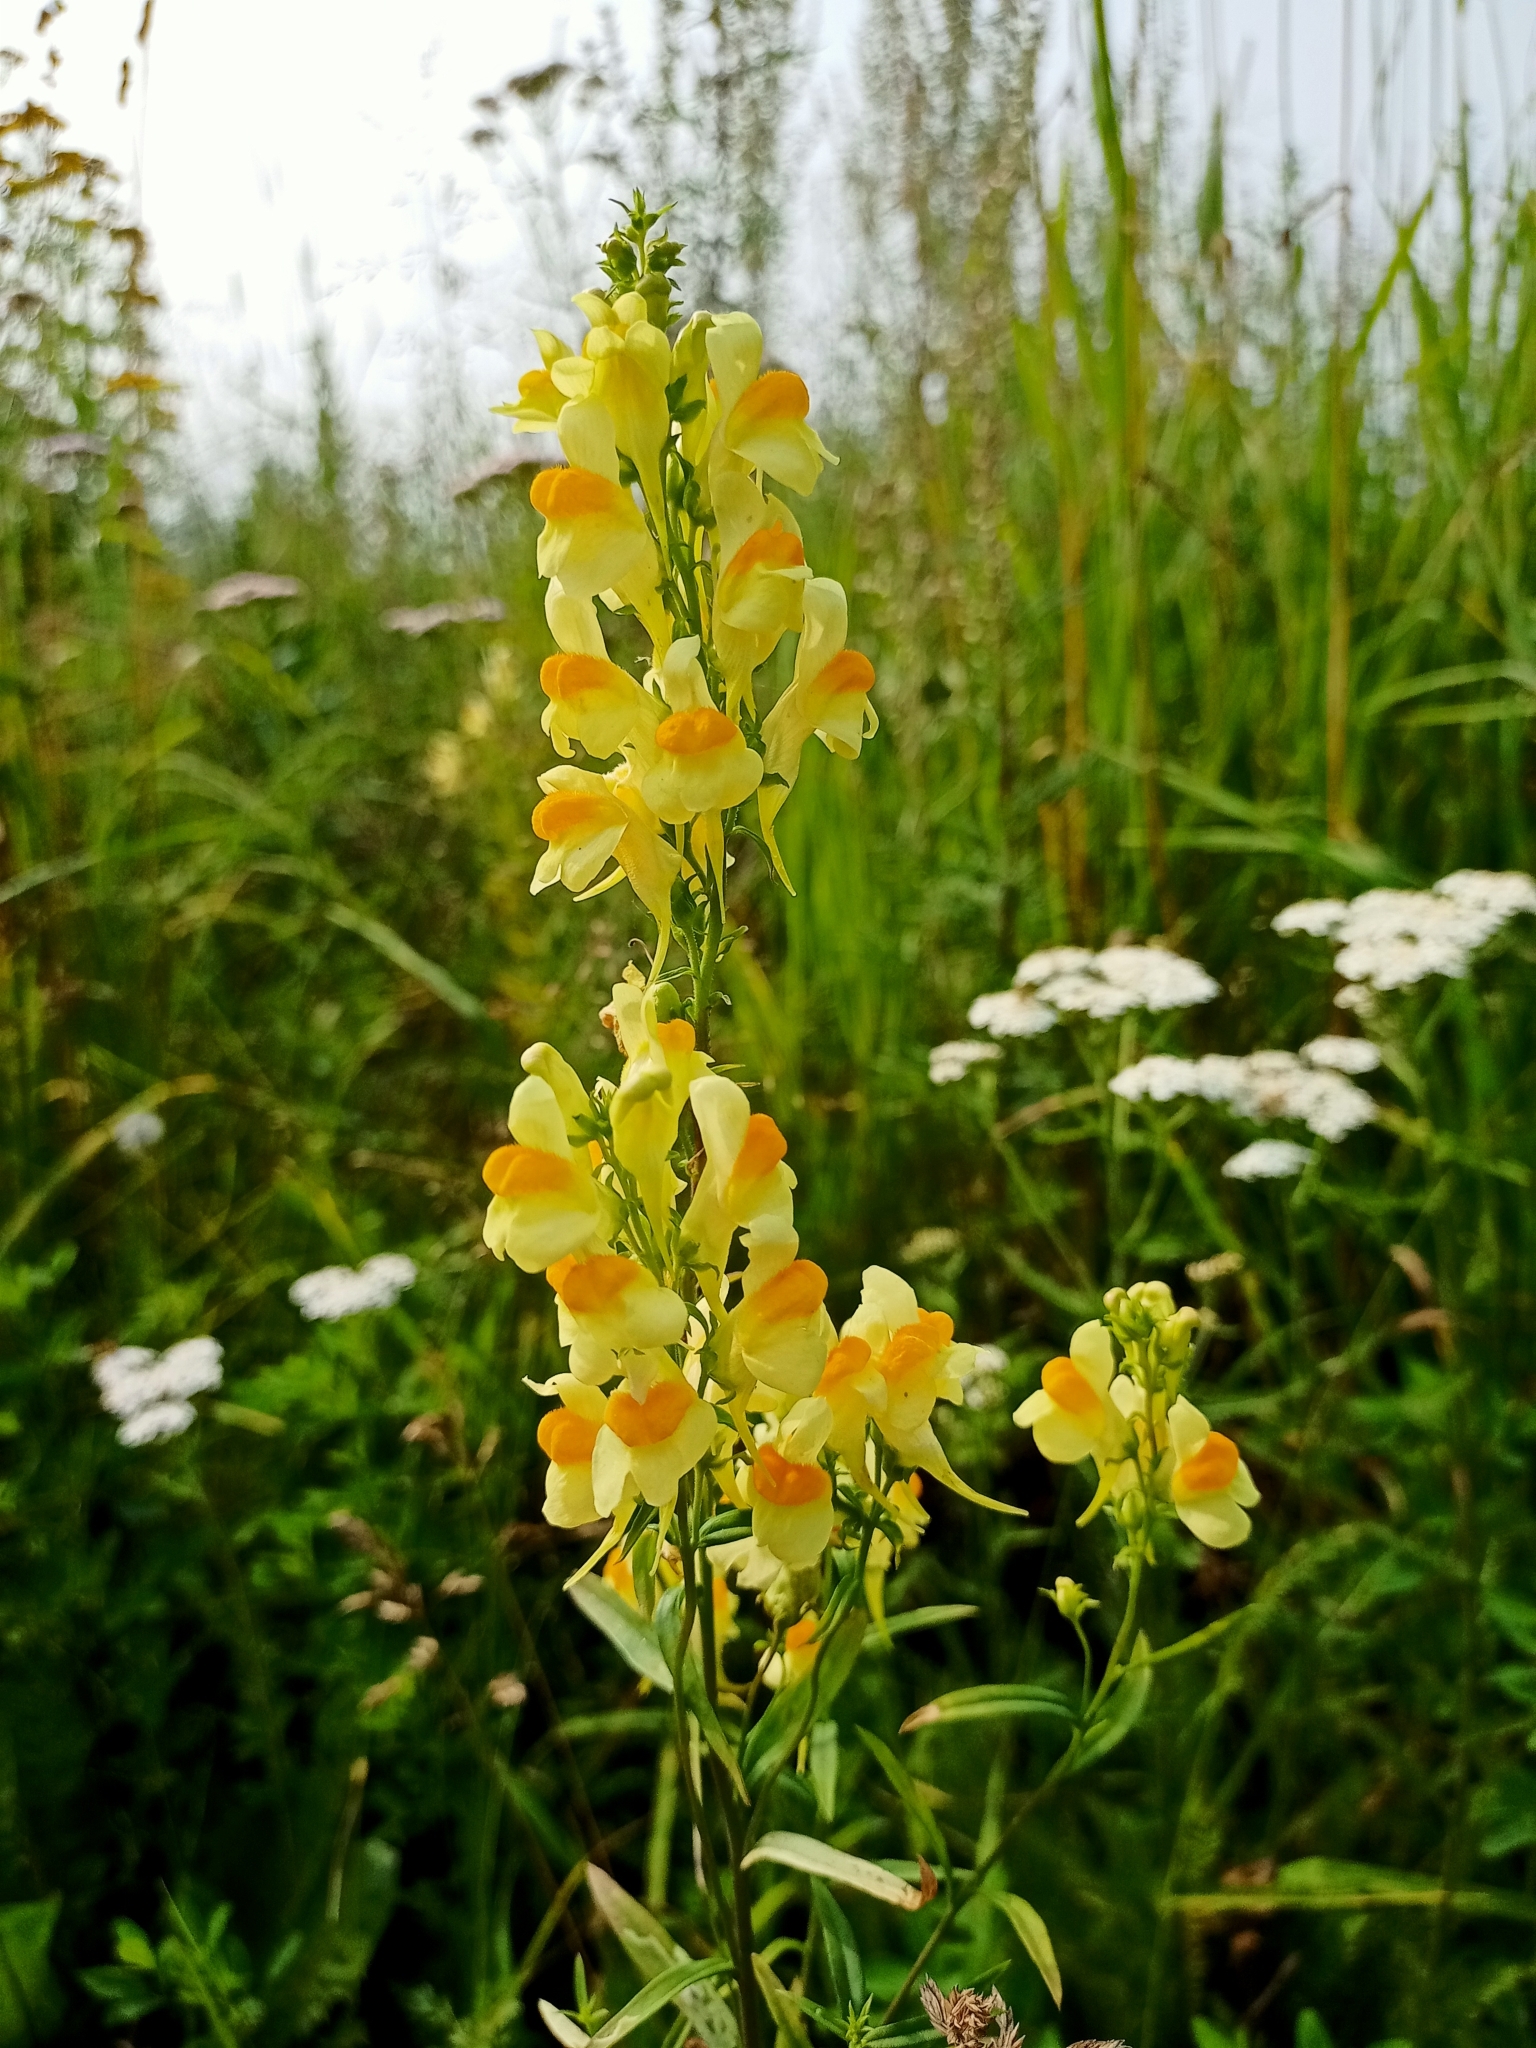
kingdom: Plantae
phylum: Tracheophyta
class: Magnoliopsida
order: Lamiales
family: Plantaginaceae
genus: Linaria
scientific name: Linaria vulgaris
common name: Butter and eggs
